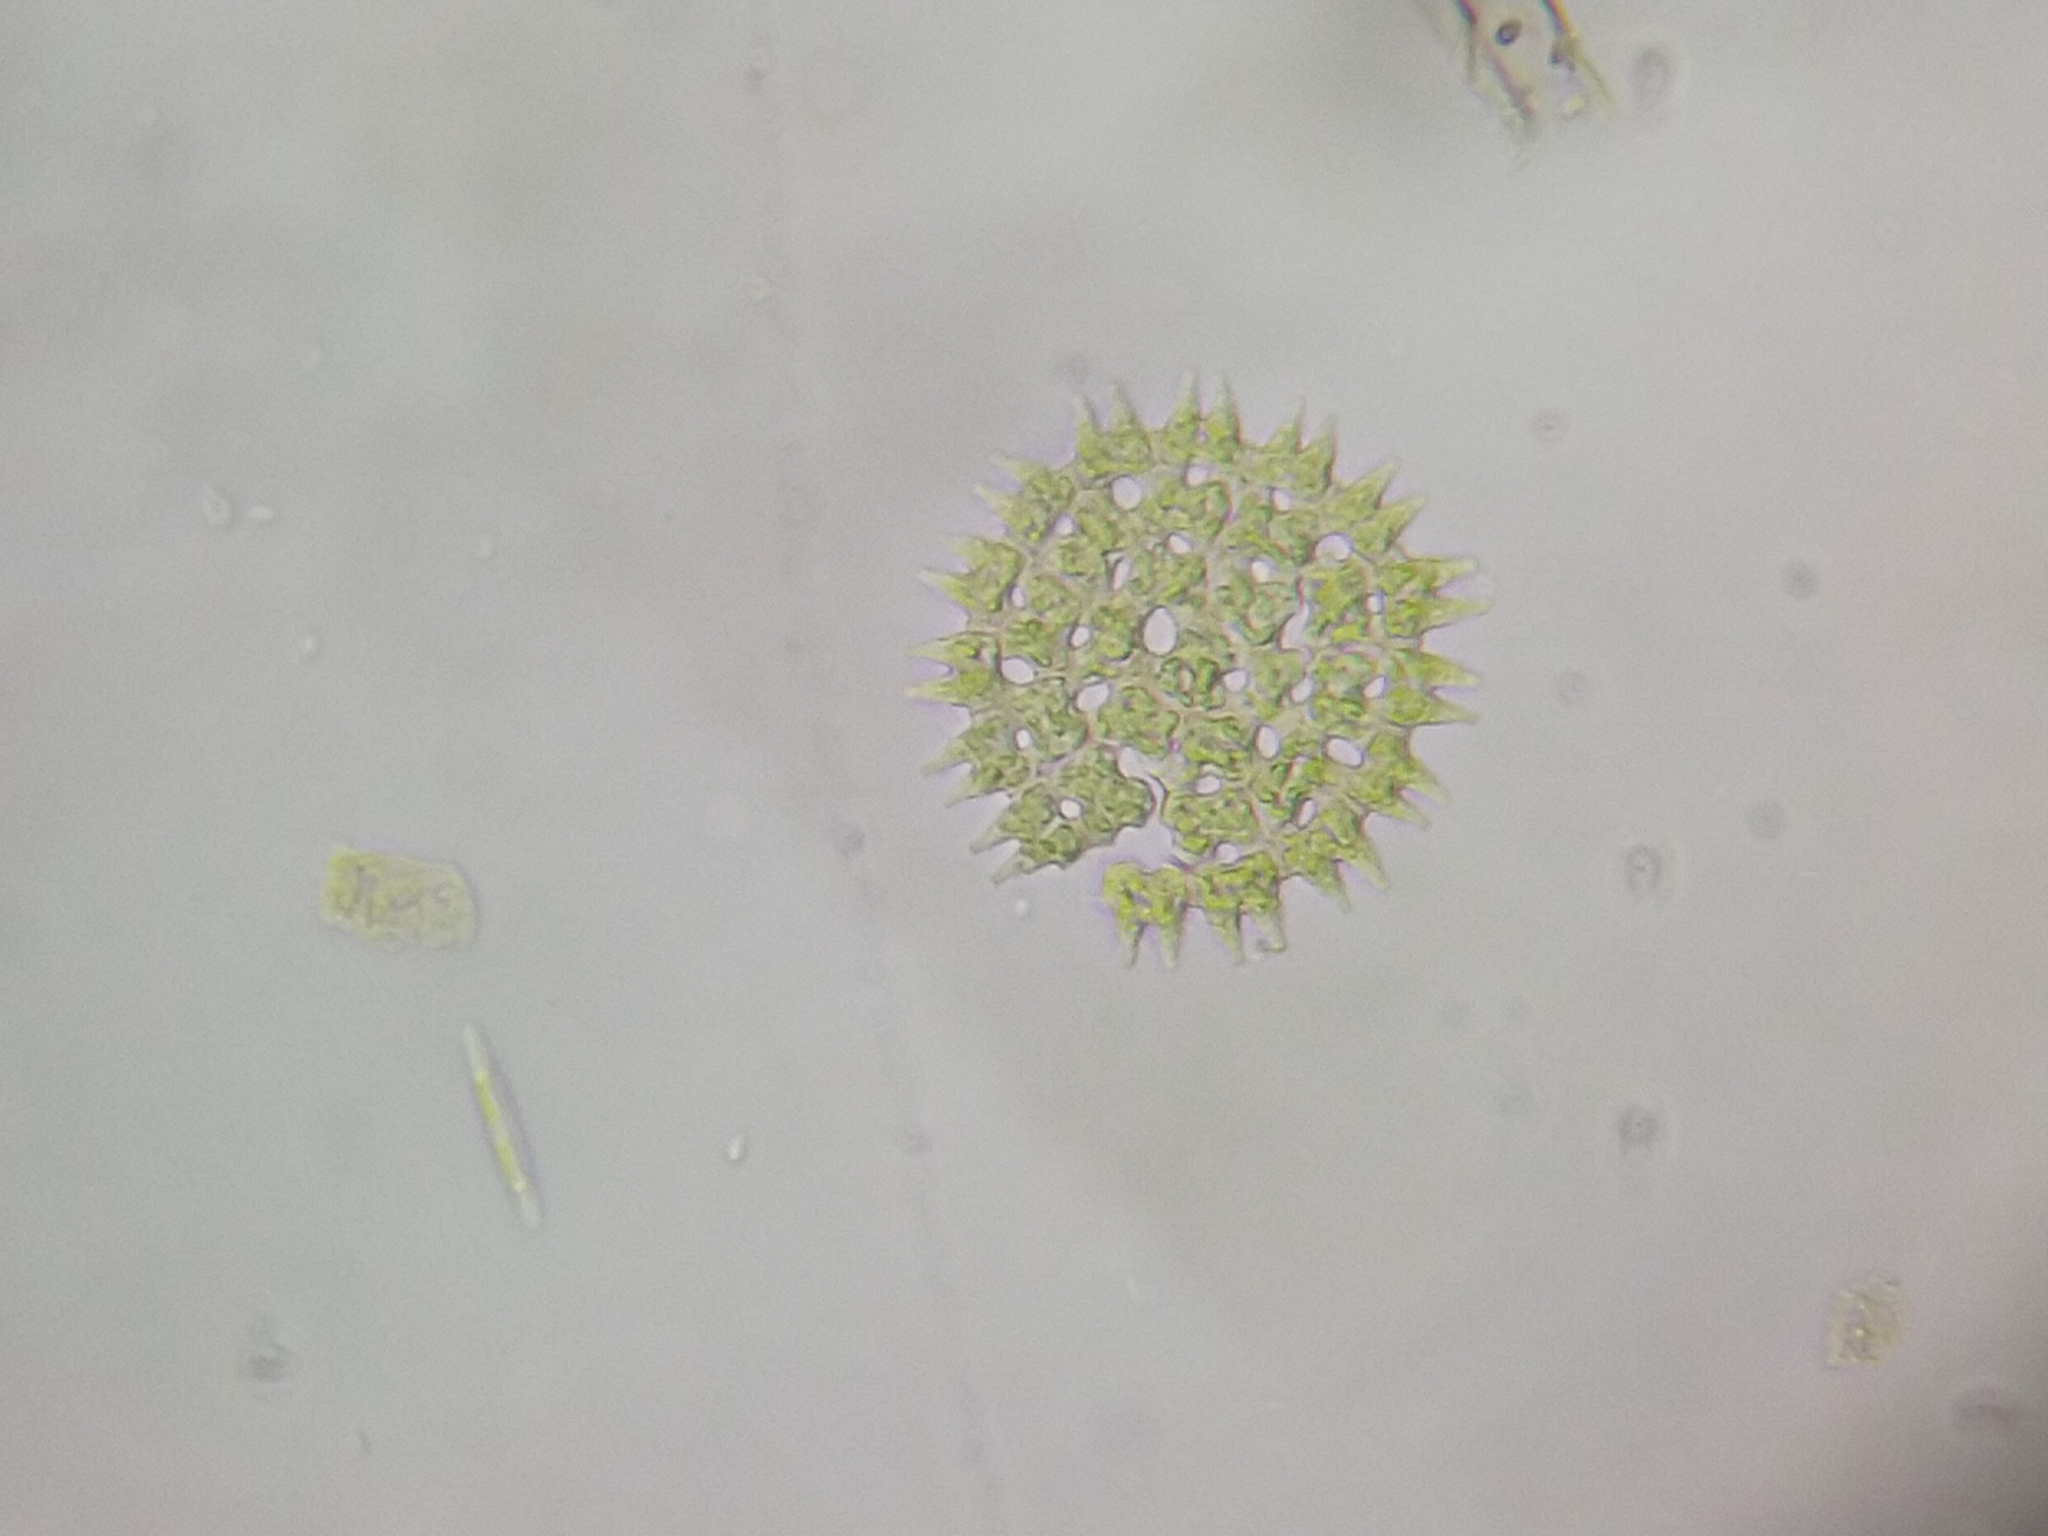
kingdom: Plantae
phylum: Chlorophyta
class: Chlorophyceae
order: Sphaeropleales
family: Hydrodictyaceae
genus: Pediastrum
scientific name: Pediastrum duplex
